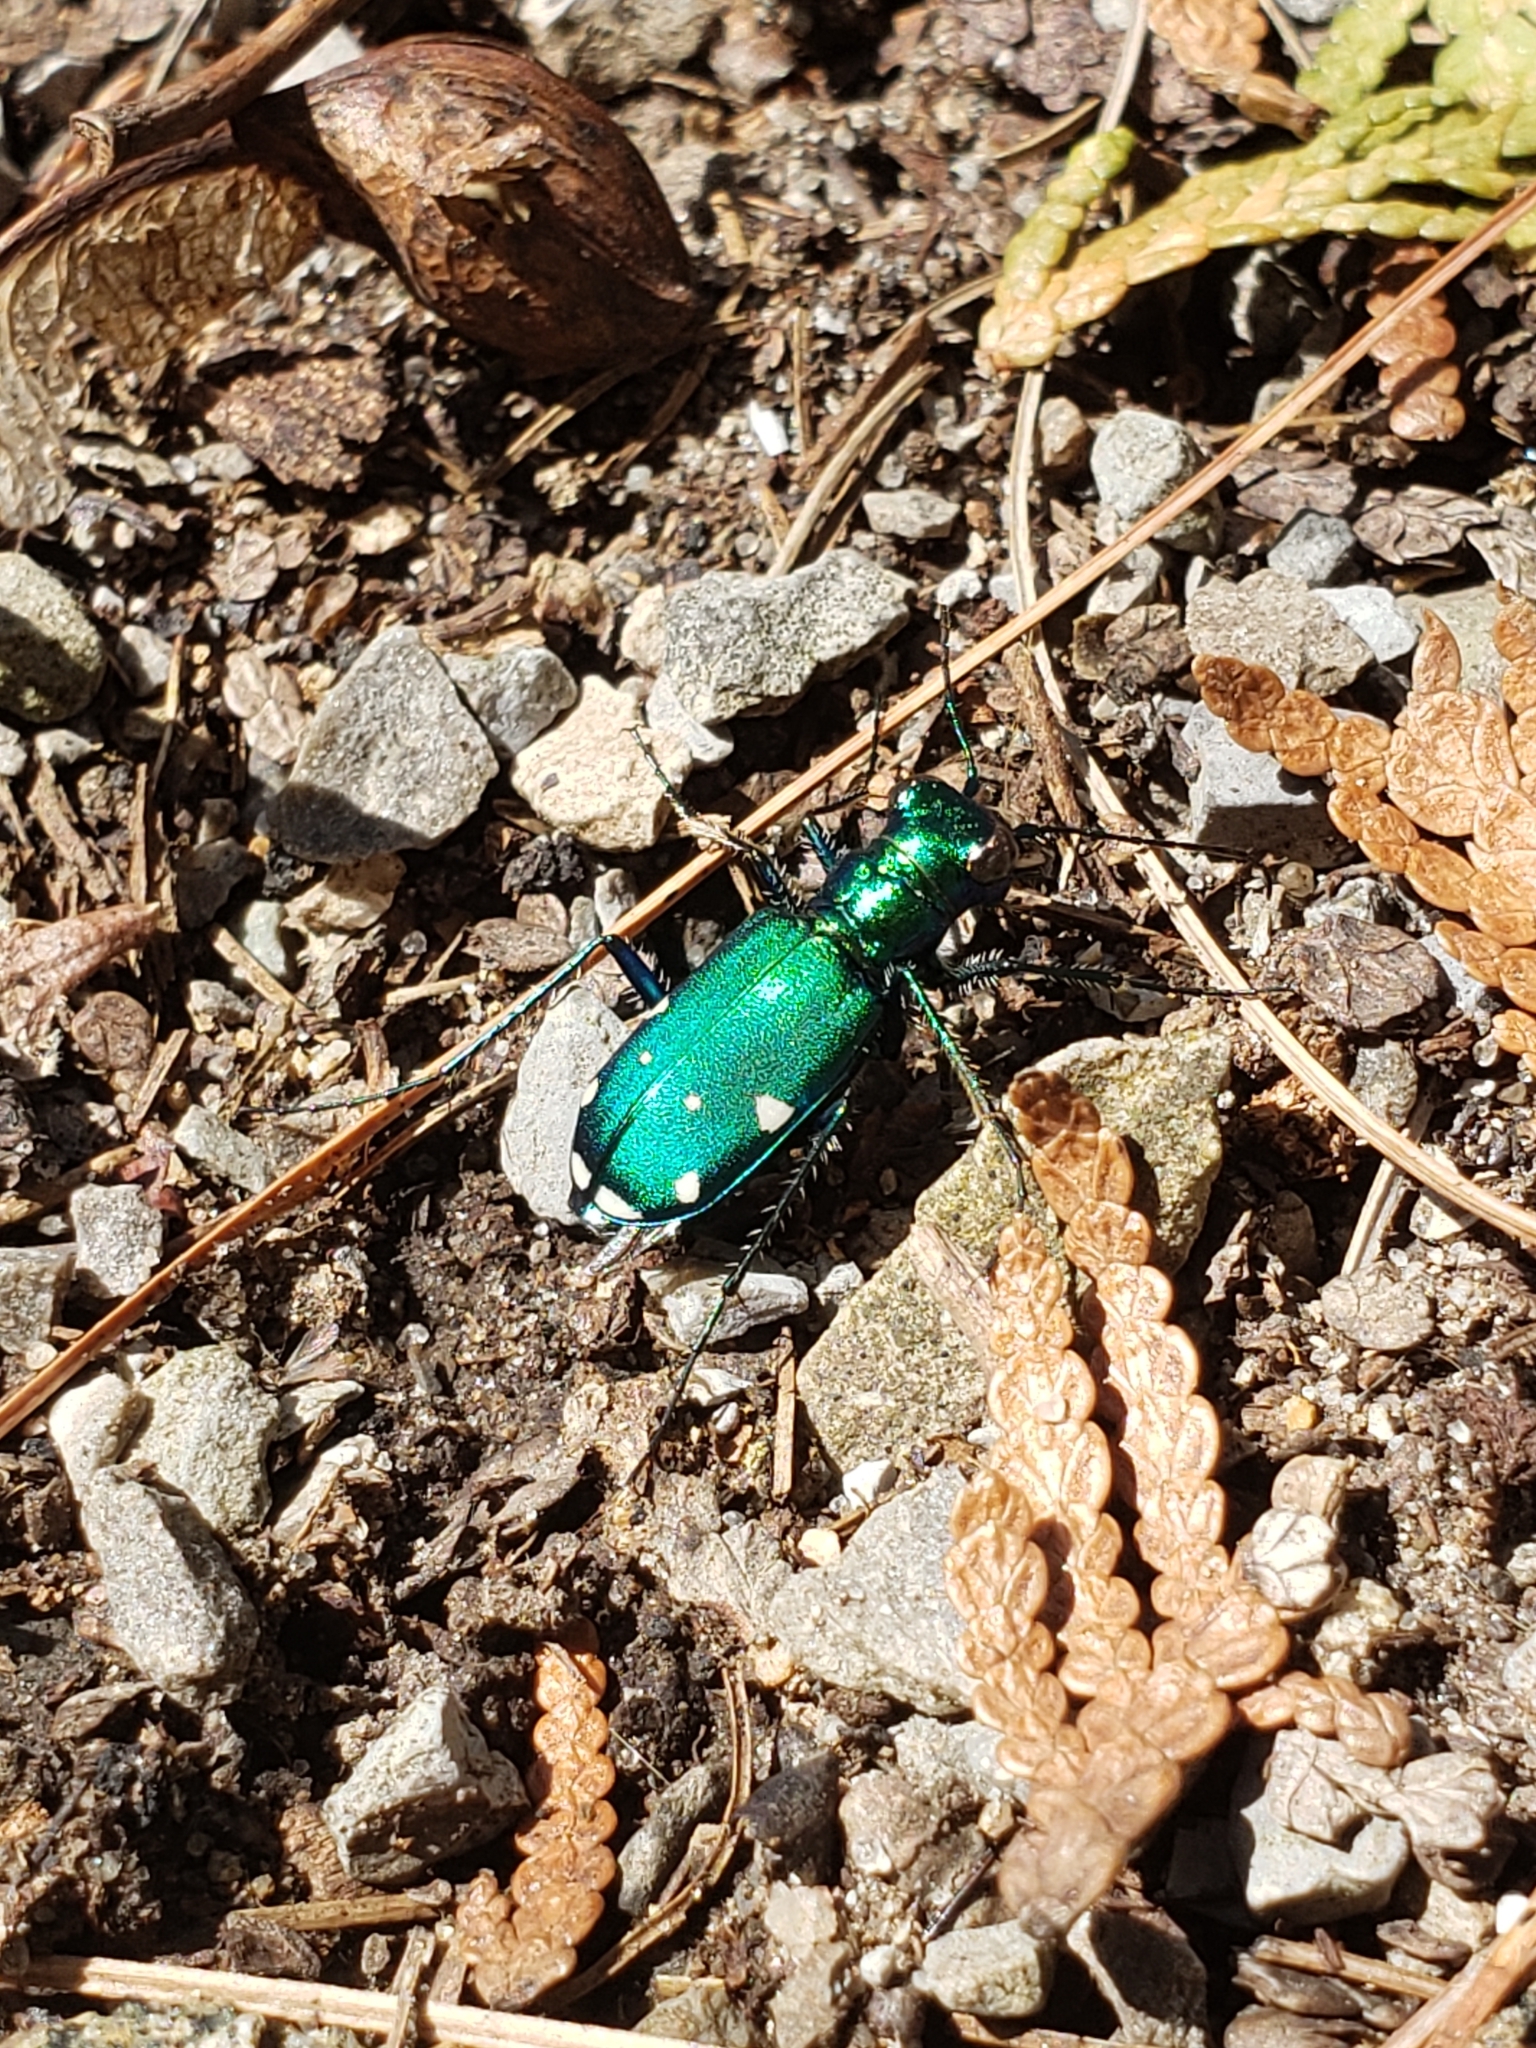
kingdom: Animalia
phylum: Arthropoda
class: Insecta
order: Coleoptera
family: Carabidae
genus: Cicindela
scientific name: Cicindela sexguttata
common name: Six-spotted tiger beetle
